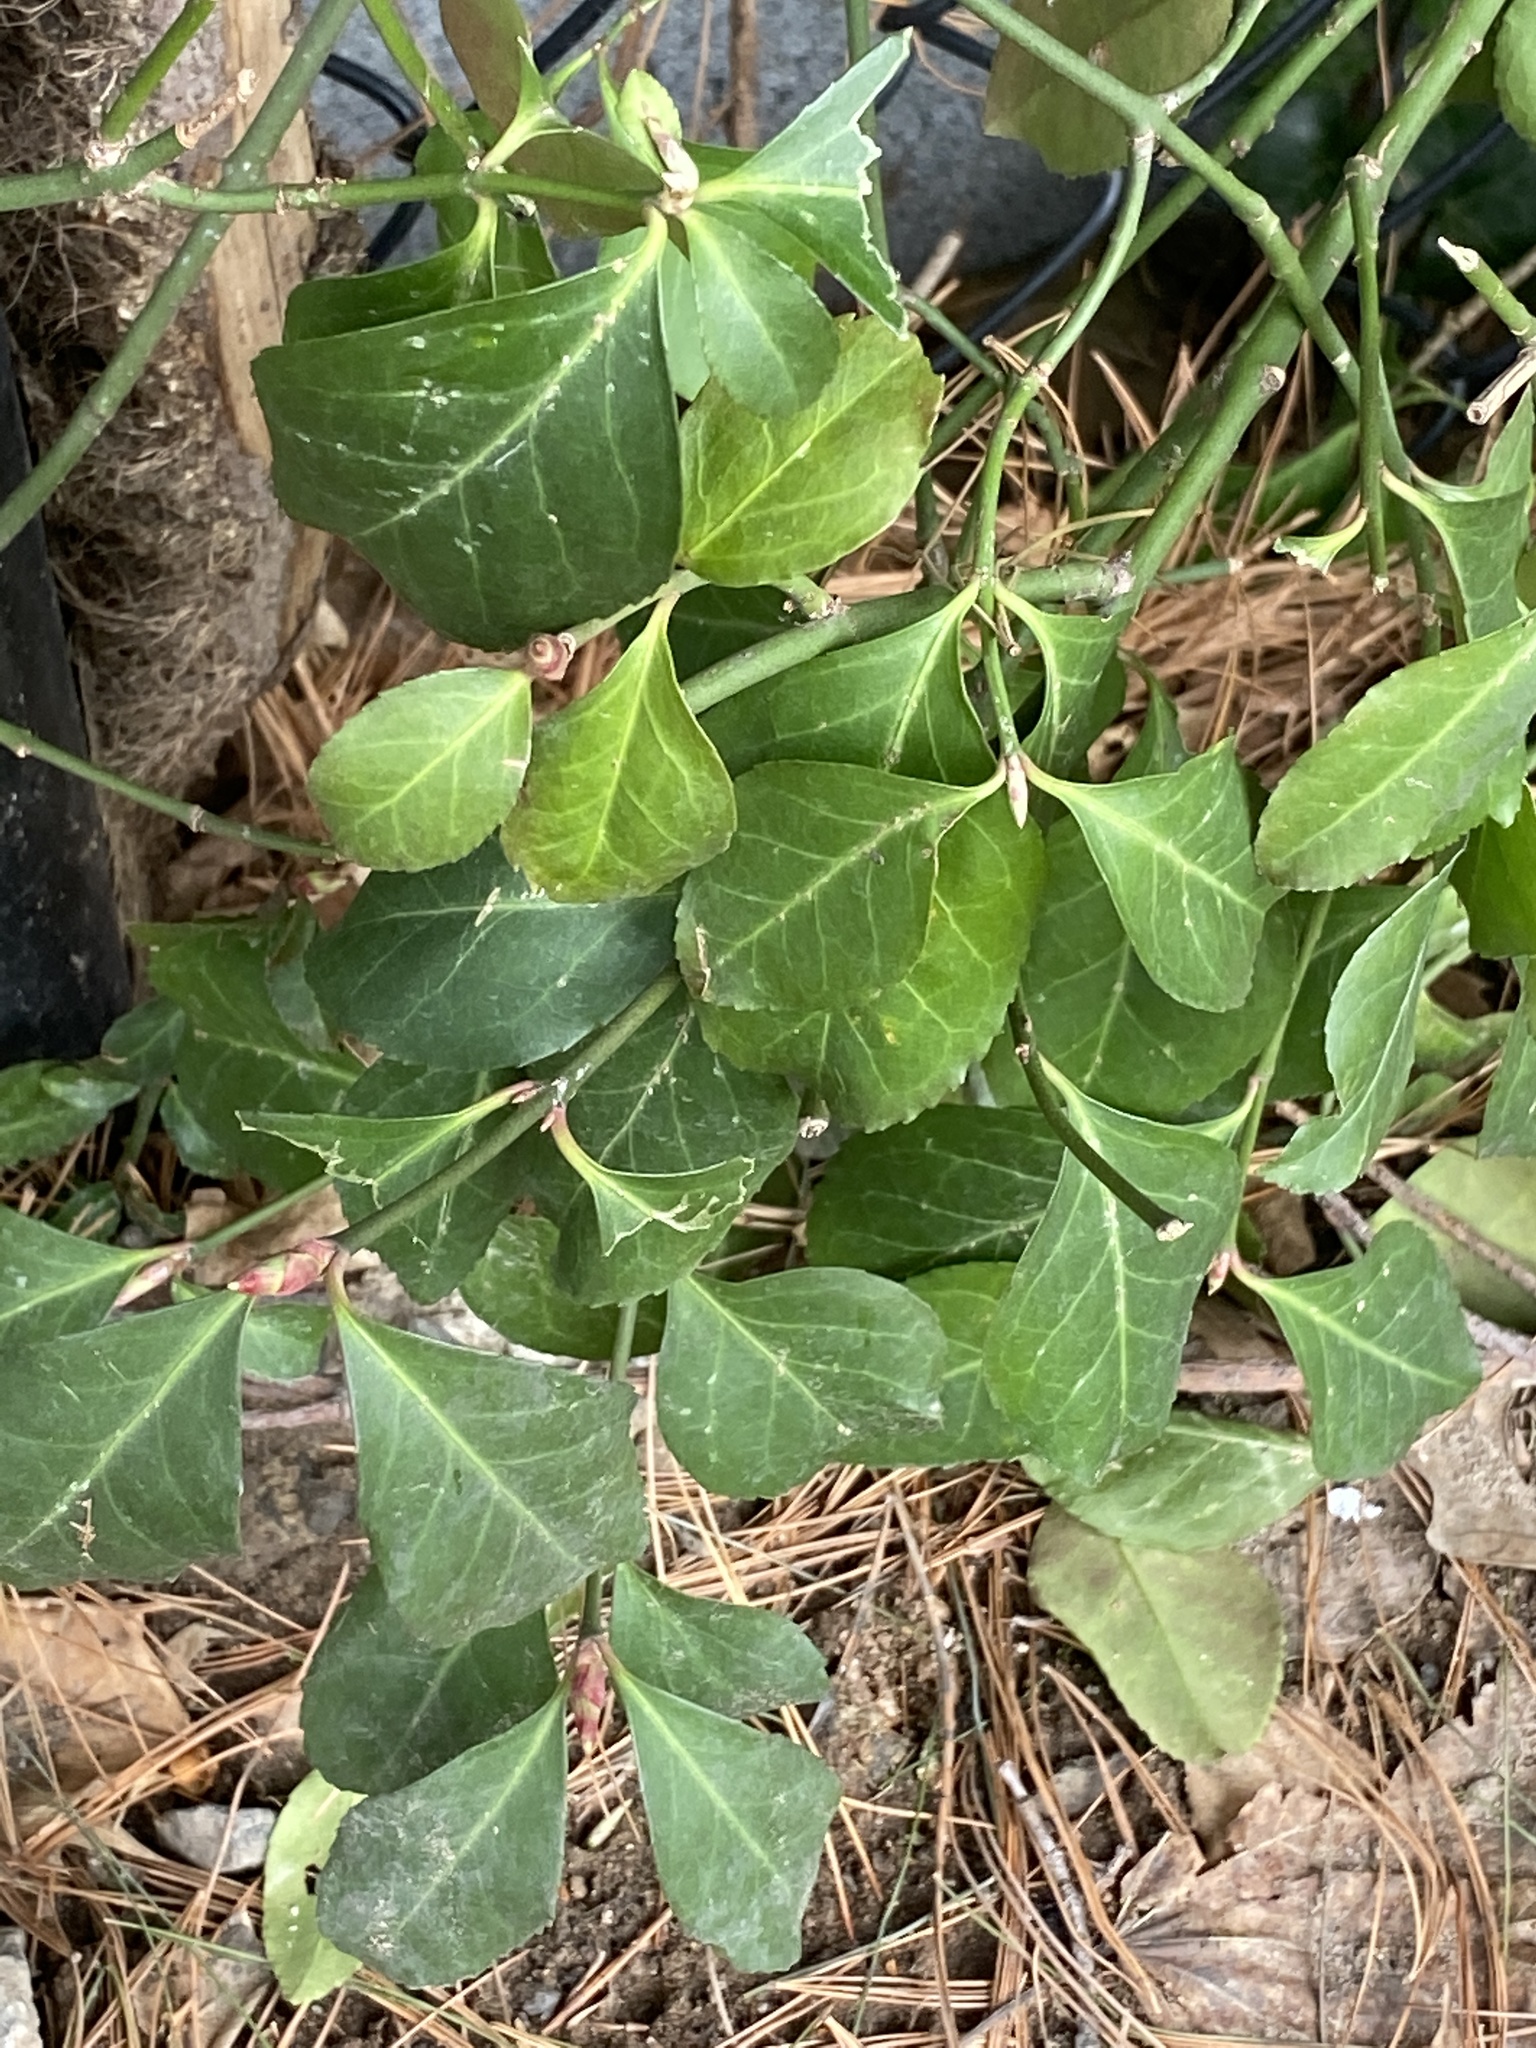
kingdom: Plantae
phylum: Tracheophyta
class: Magnoliopsida
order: Celastrales
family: Celastraceae
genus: Euonymus
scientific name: Euonymus fortunei
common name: Climbing euonymus
